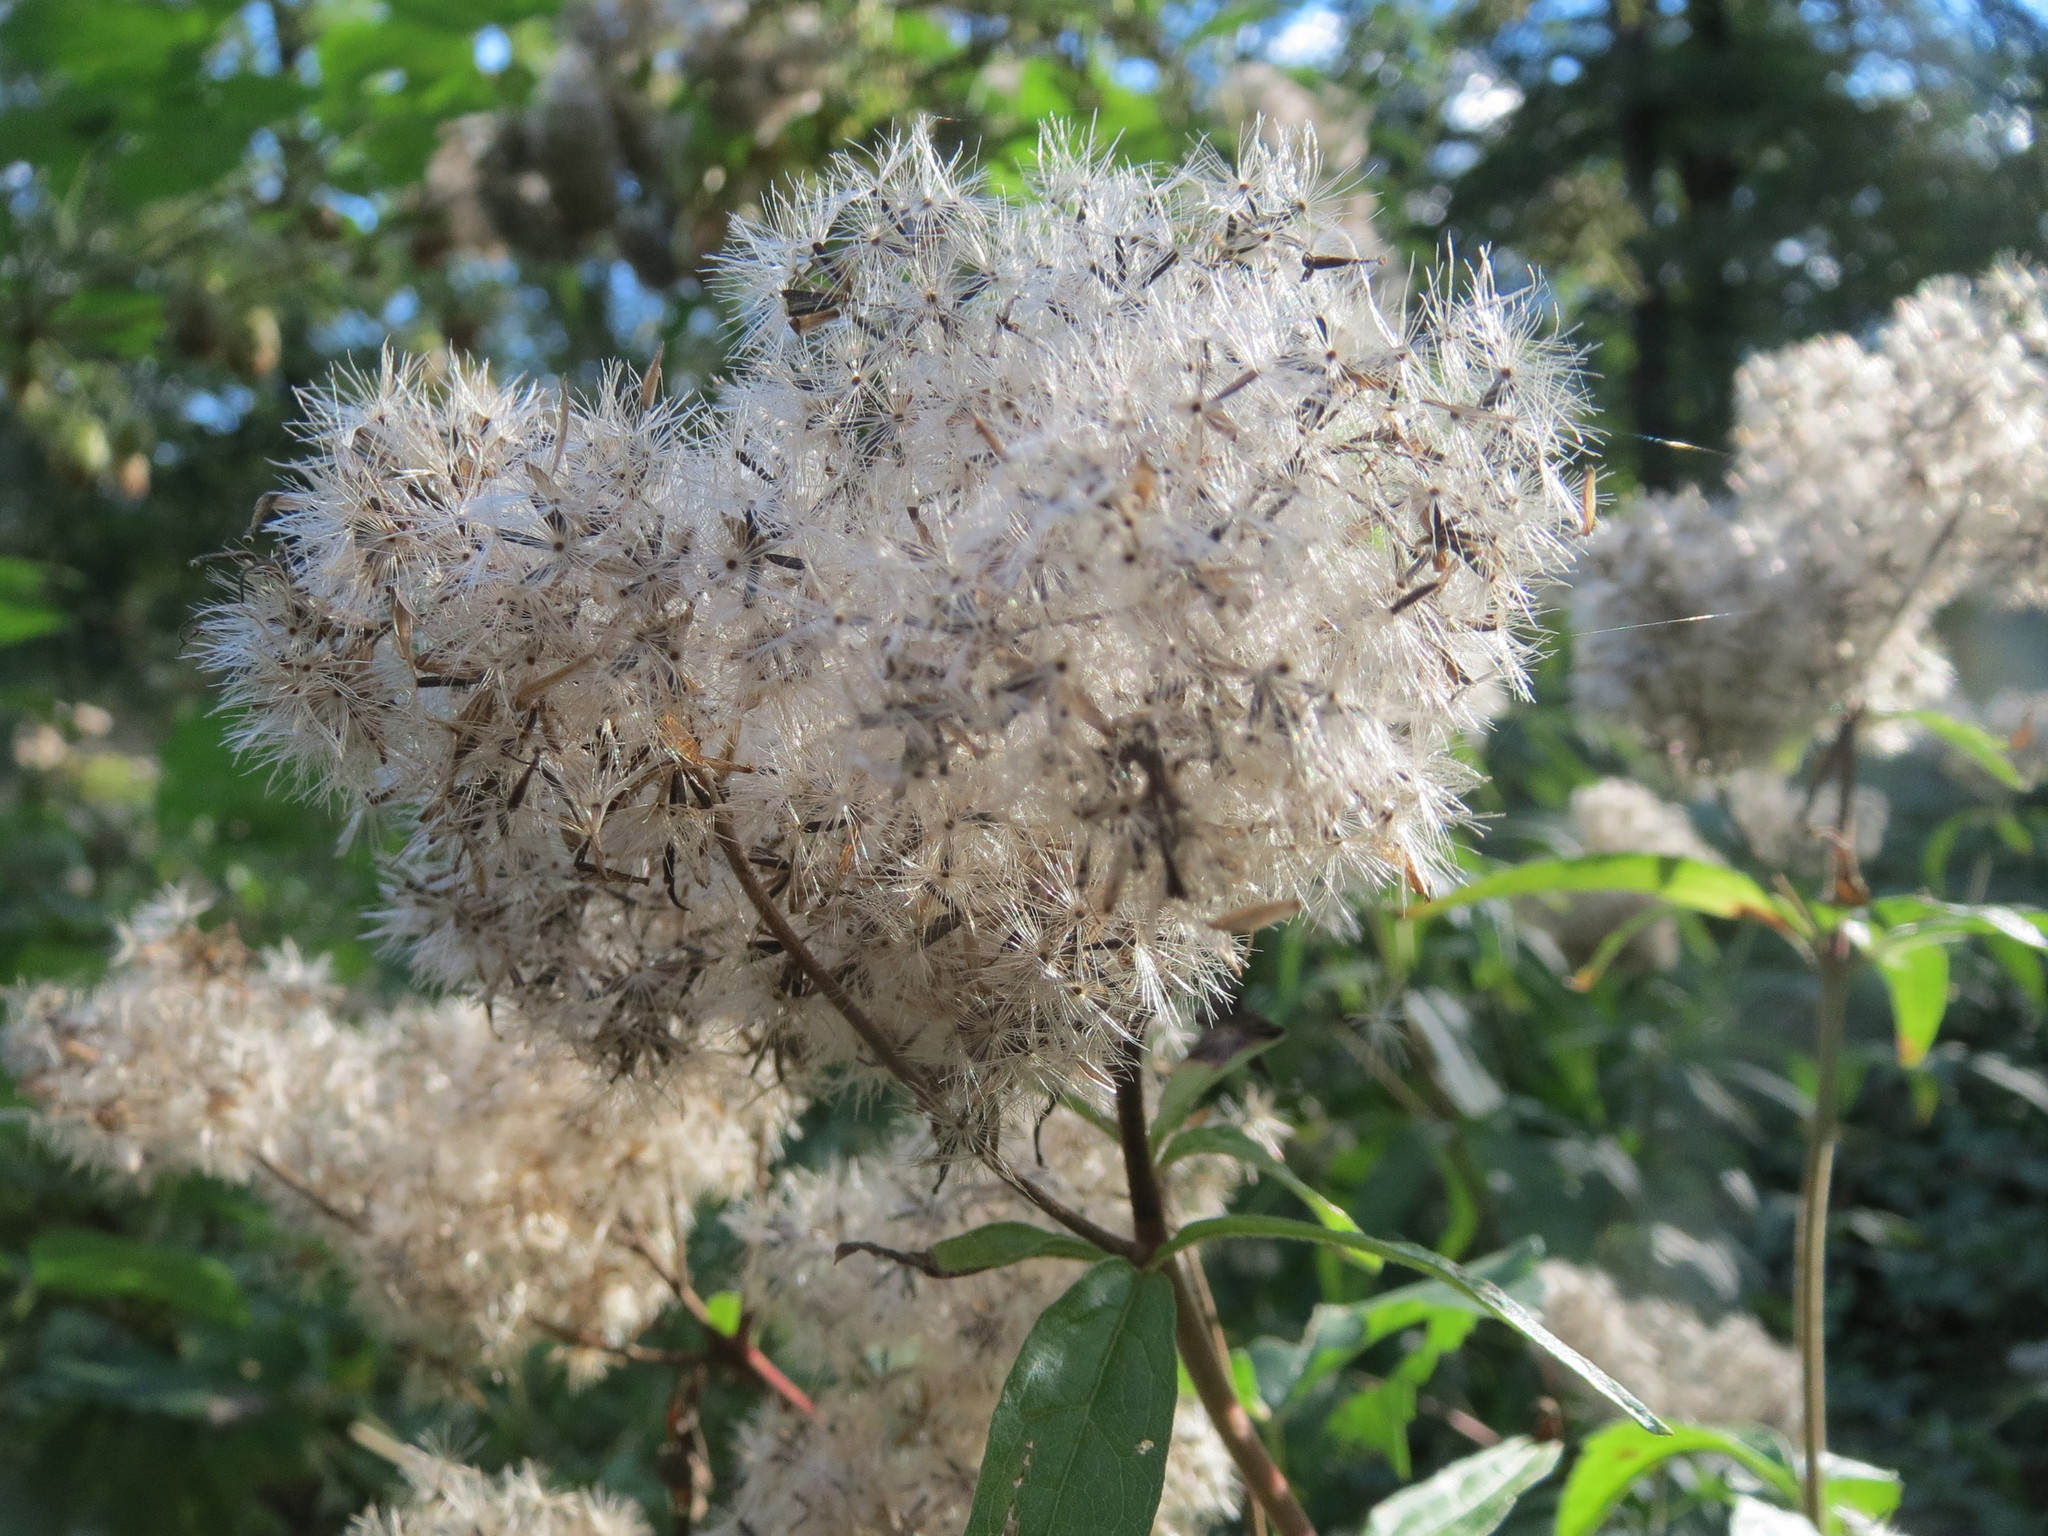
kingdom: Plantae
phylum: Tracheophyta
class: Magnoliopsida
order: Asterales
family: Asteraceae
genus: Eupatorium
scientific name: Eupatorium cannabinum
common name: Hemp-agrimony
